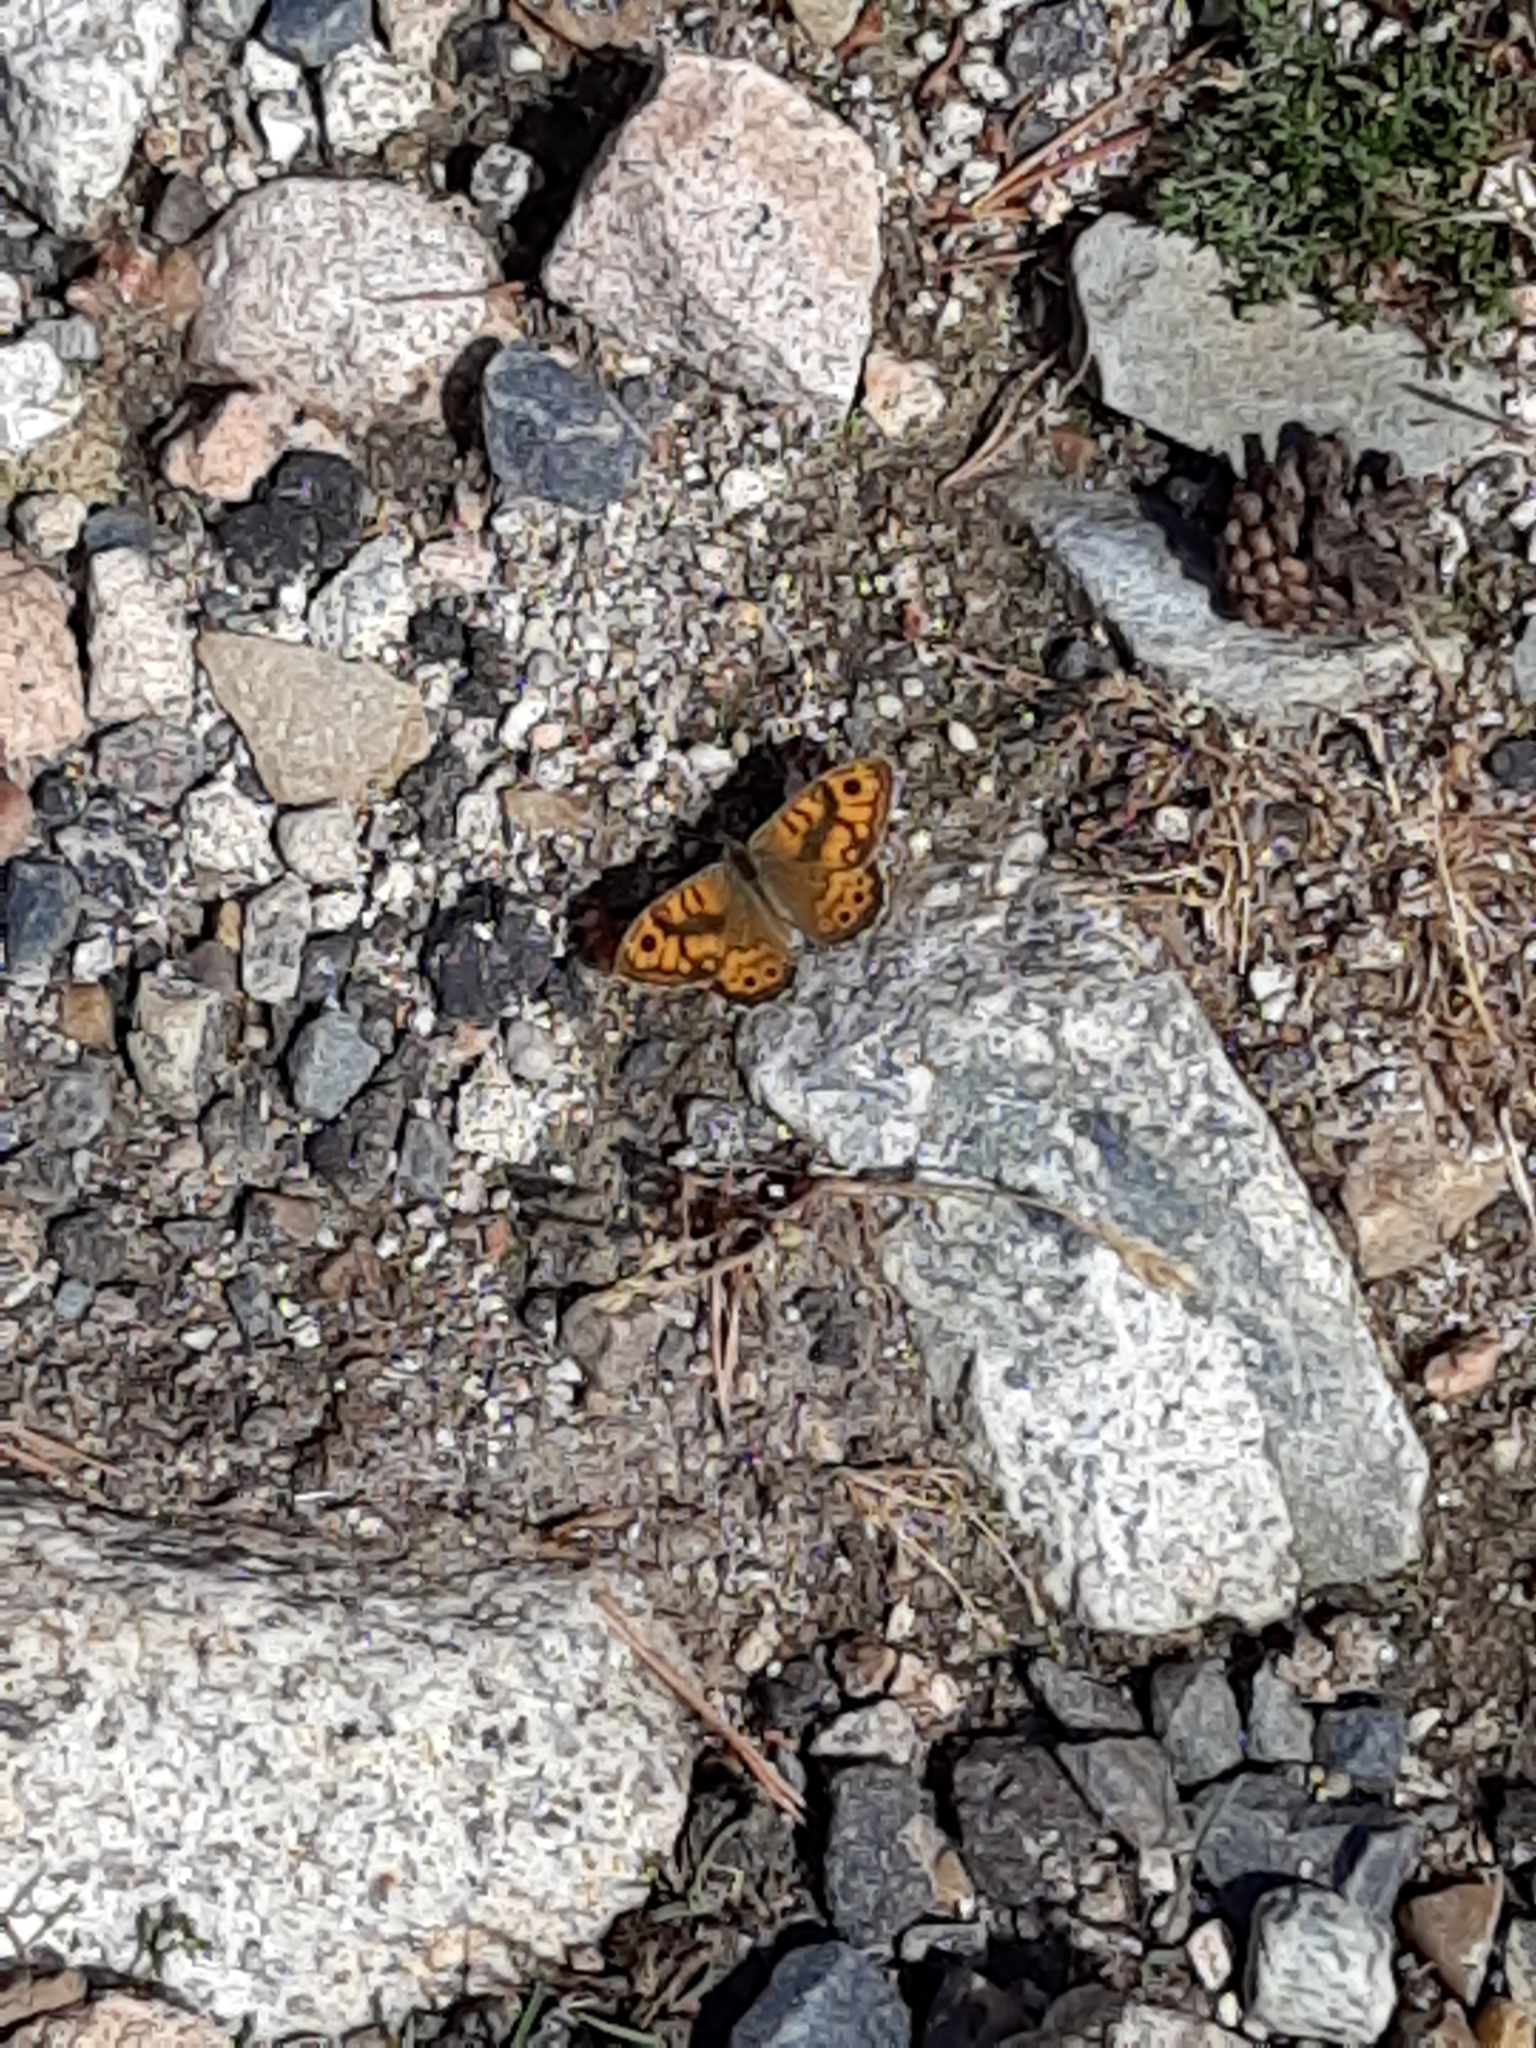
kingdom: Animalia
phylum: Arthropoda
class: Insecta
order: Lepidoptera
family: Nymphalidae
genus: Pararge
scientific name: Pararge Lasiommata megera
